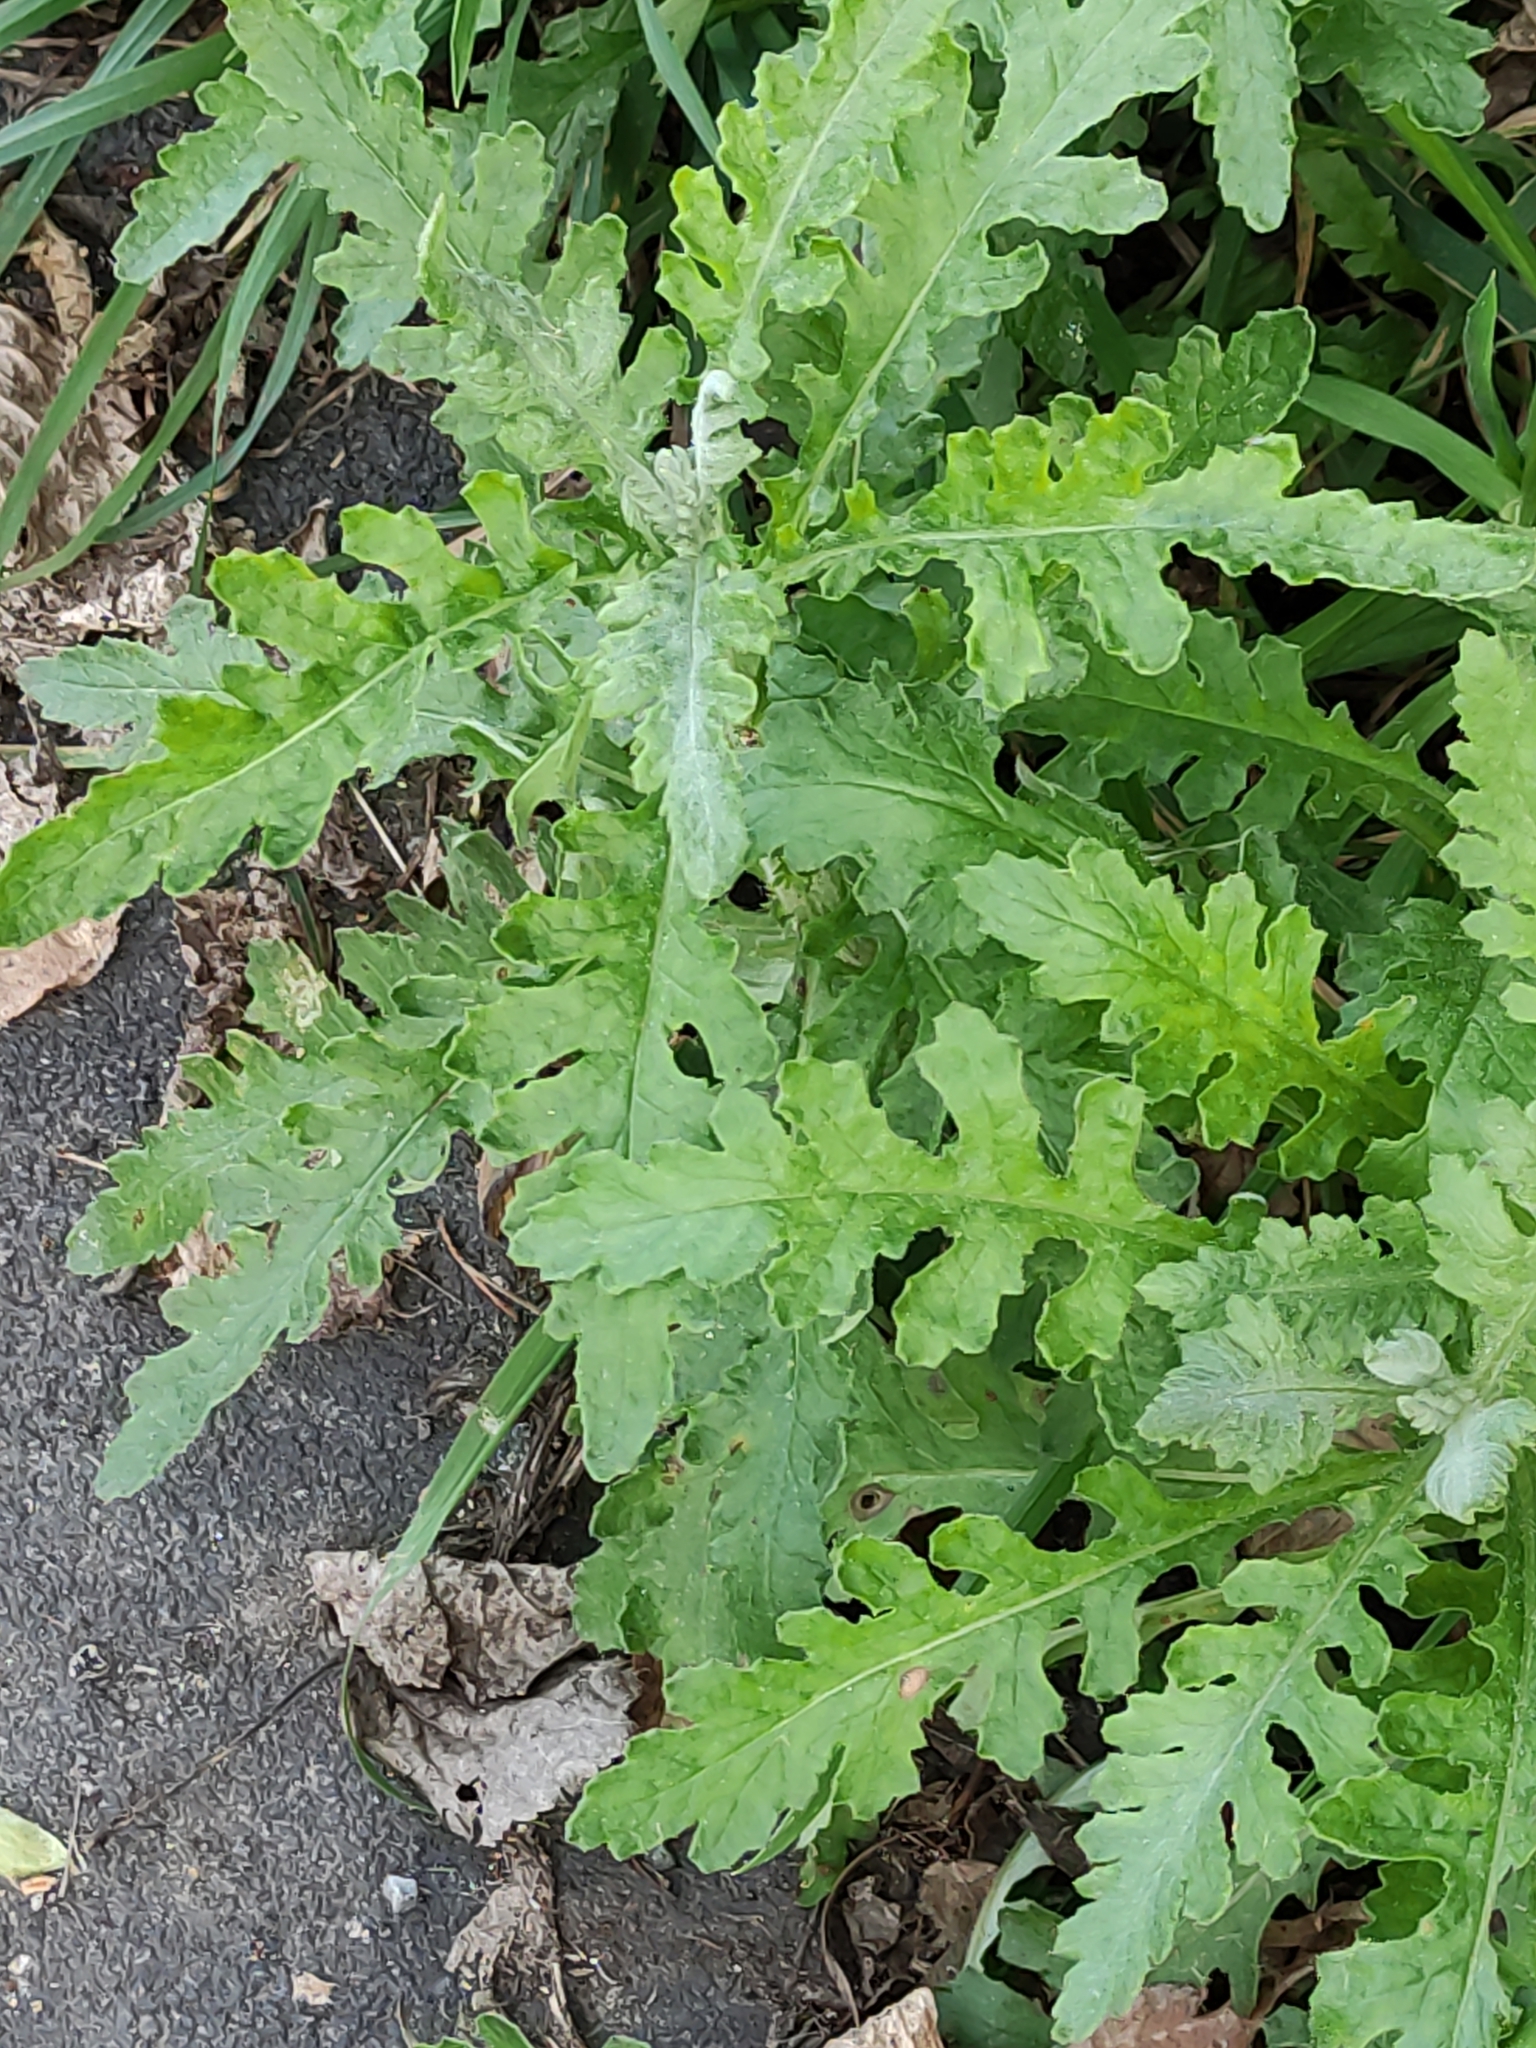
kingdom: Plantae
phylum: Tracheophyta
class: Magnoliopsida
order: Asterales
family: Asteraceae
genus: Senecio
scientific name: Senecio glomeratus
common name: Cutleaf burnweed
